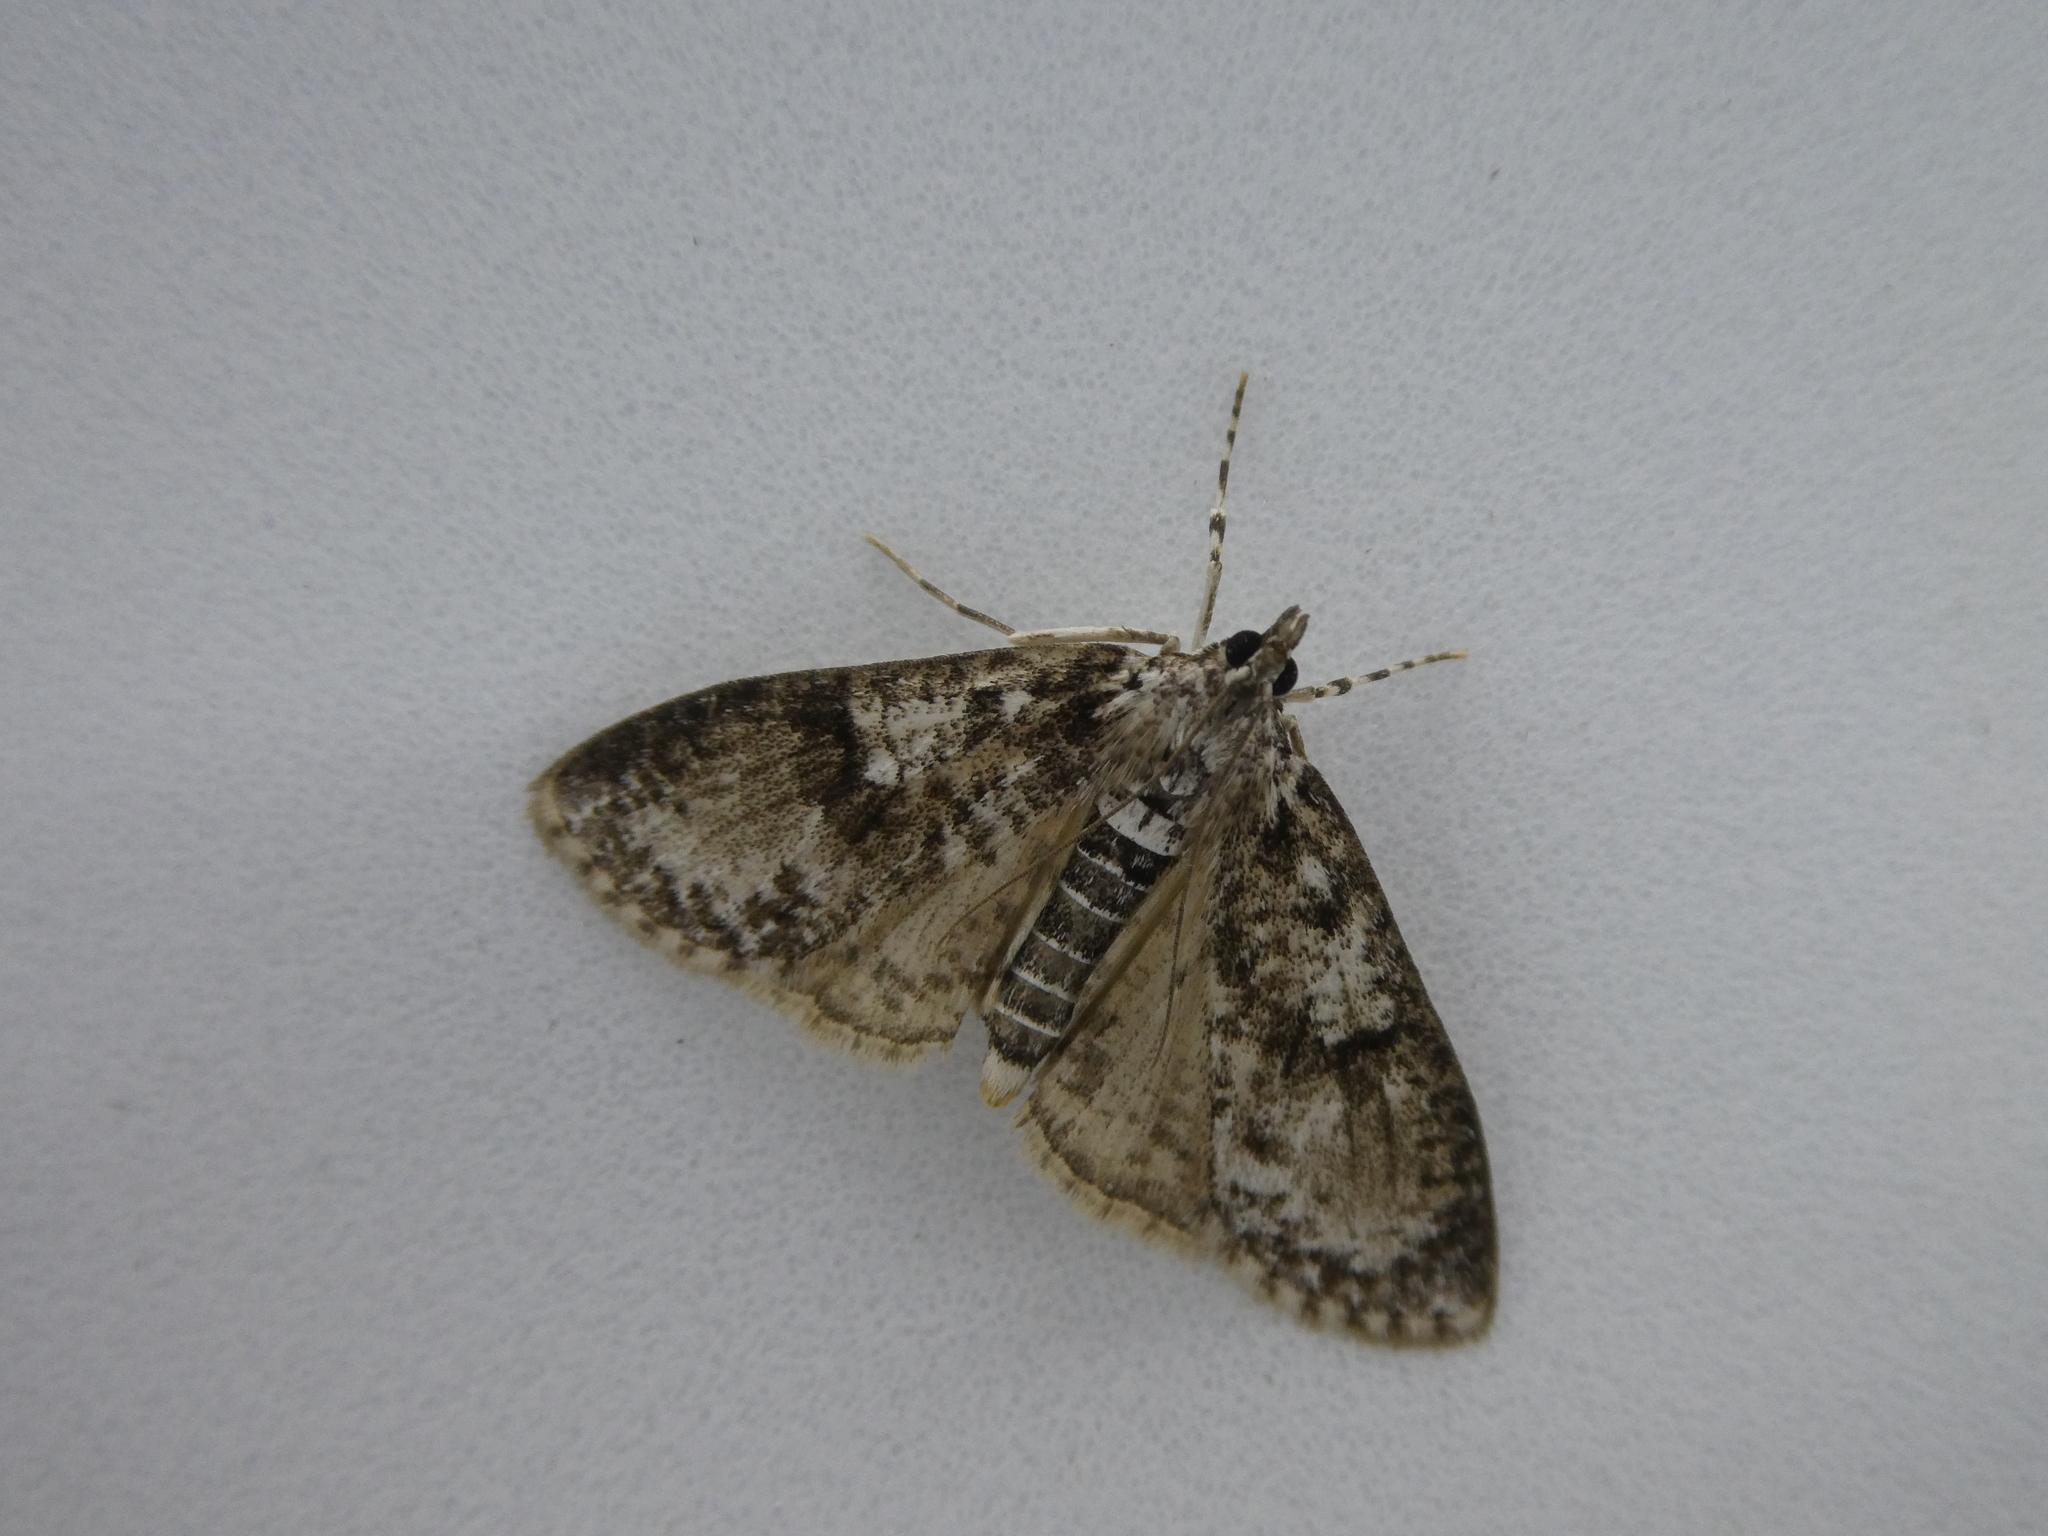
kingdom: Animalia
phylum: Arthropoda
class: Insecta
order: Lepidoptera
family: Crambidae
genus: Palpita
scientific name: Palpita magniferalis
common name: Splendid palpita moth
